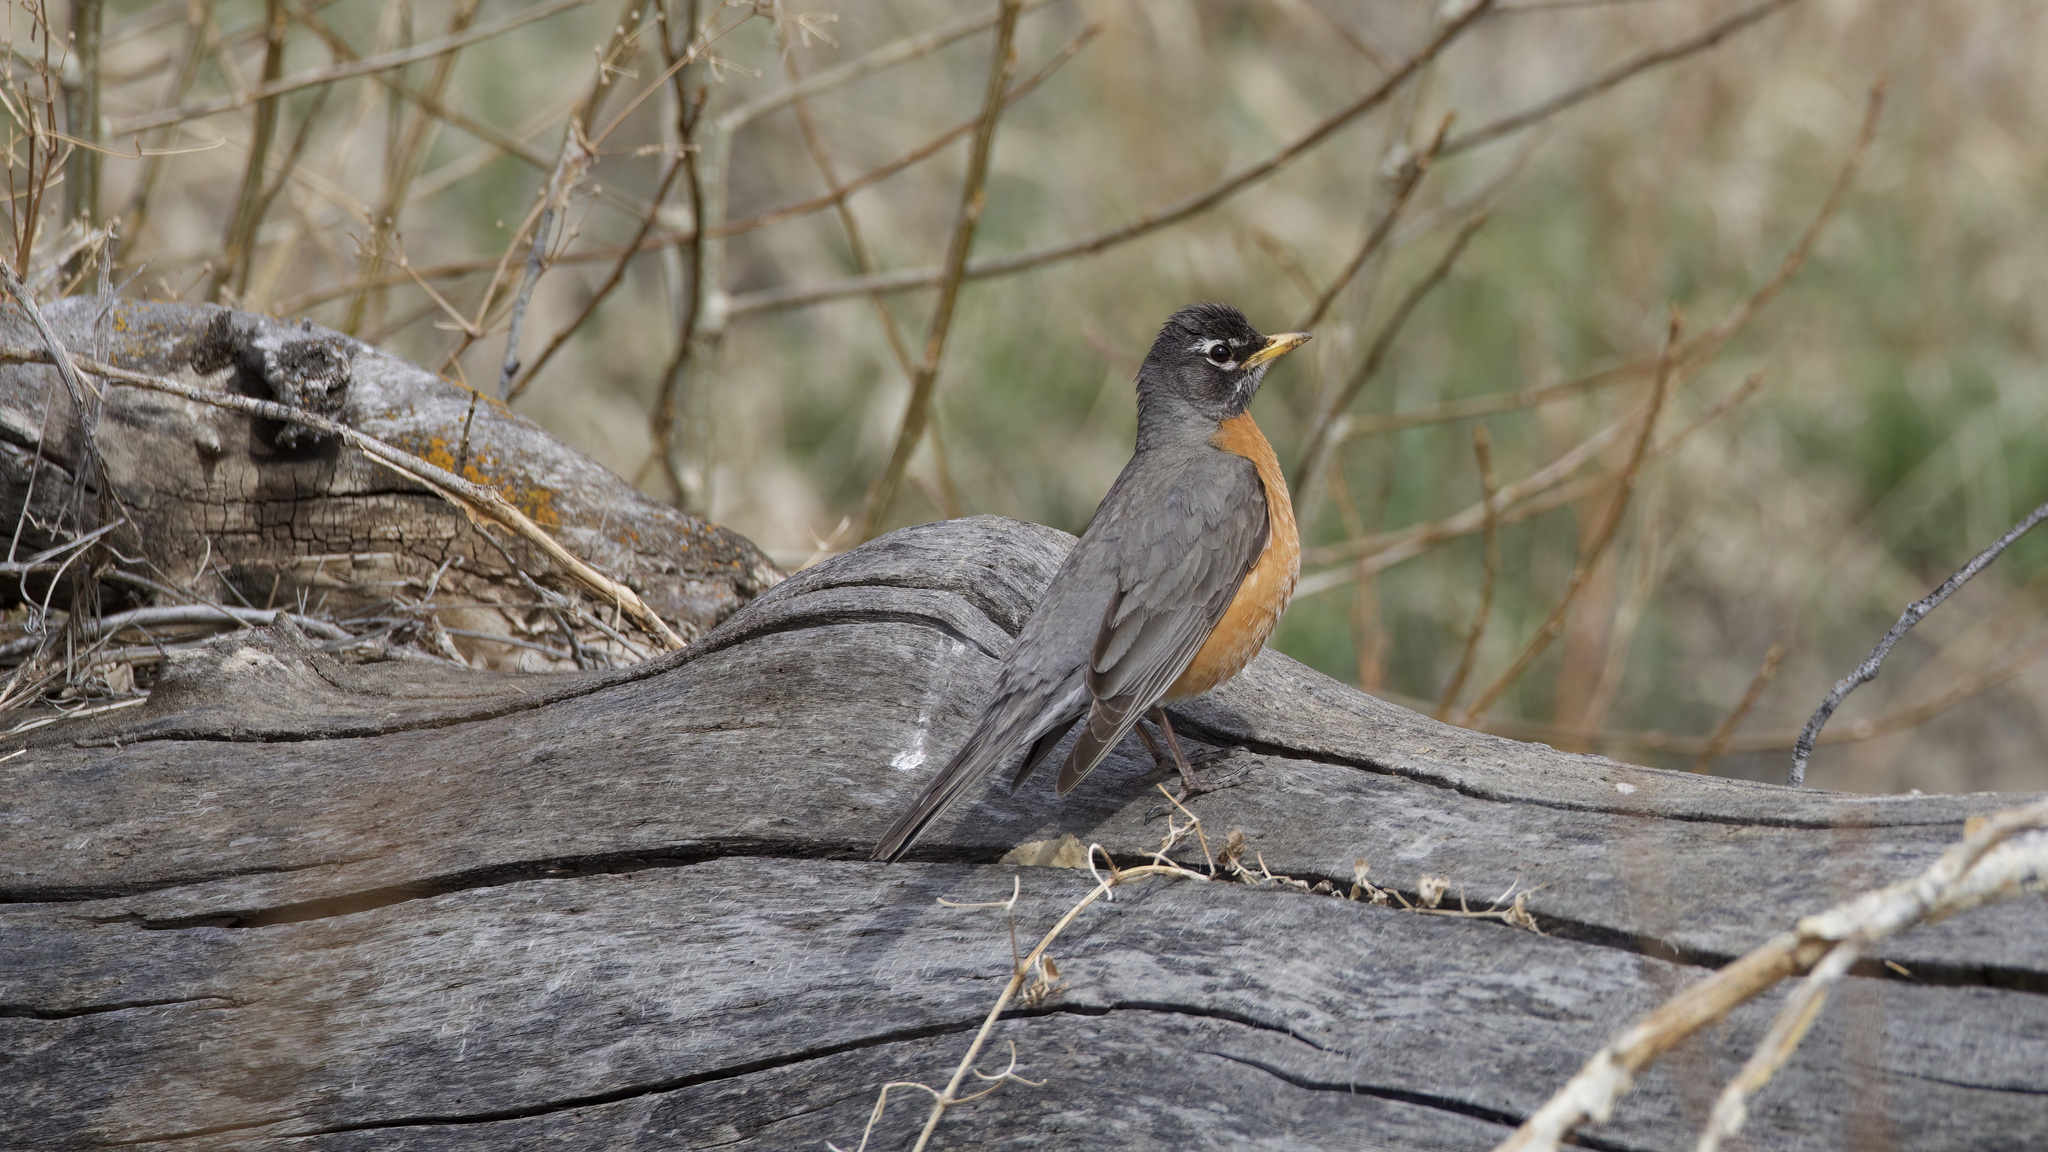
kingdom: Animalia
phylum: Chordata
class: Aves
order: Passeriformes
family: Turdidae
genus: Turdus
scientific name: Turdus migratorius
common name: American robin
